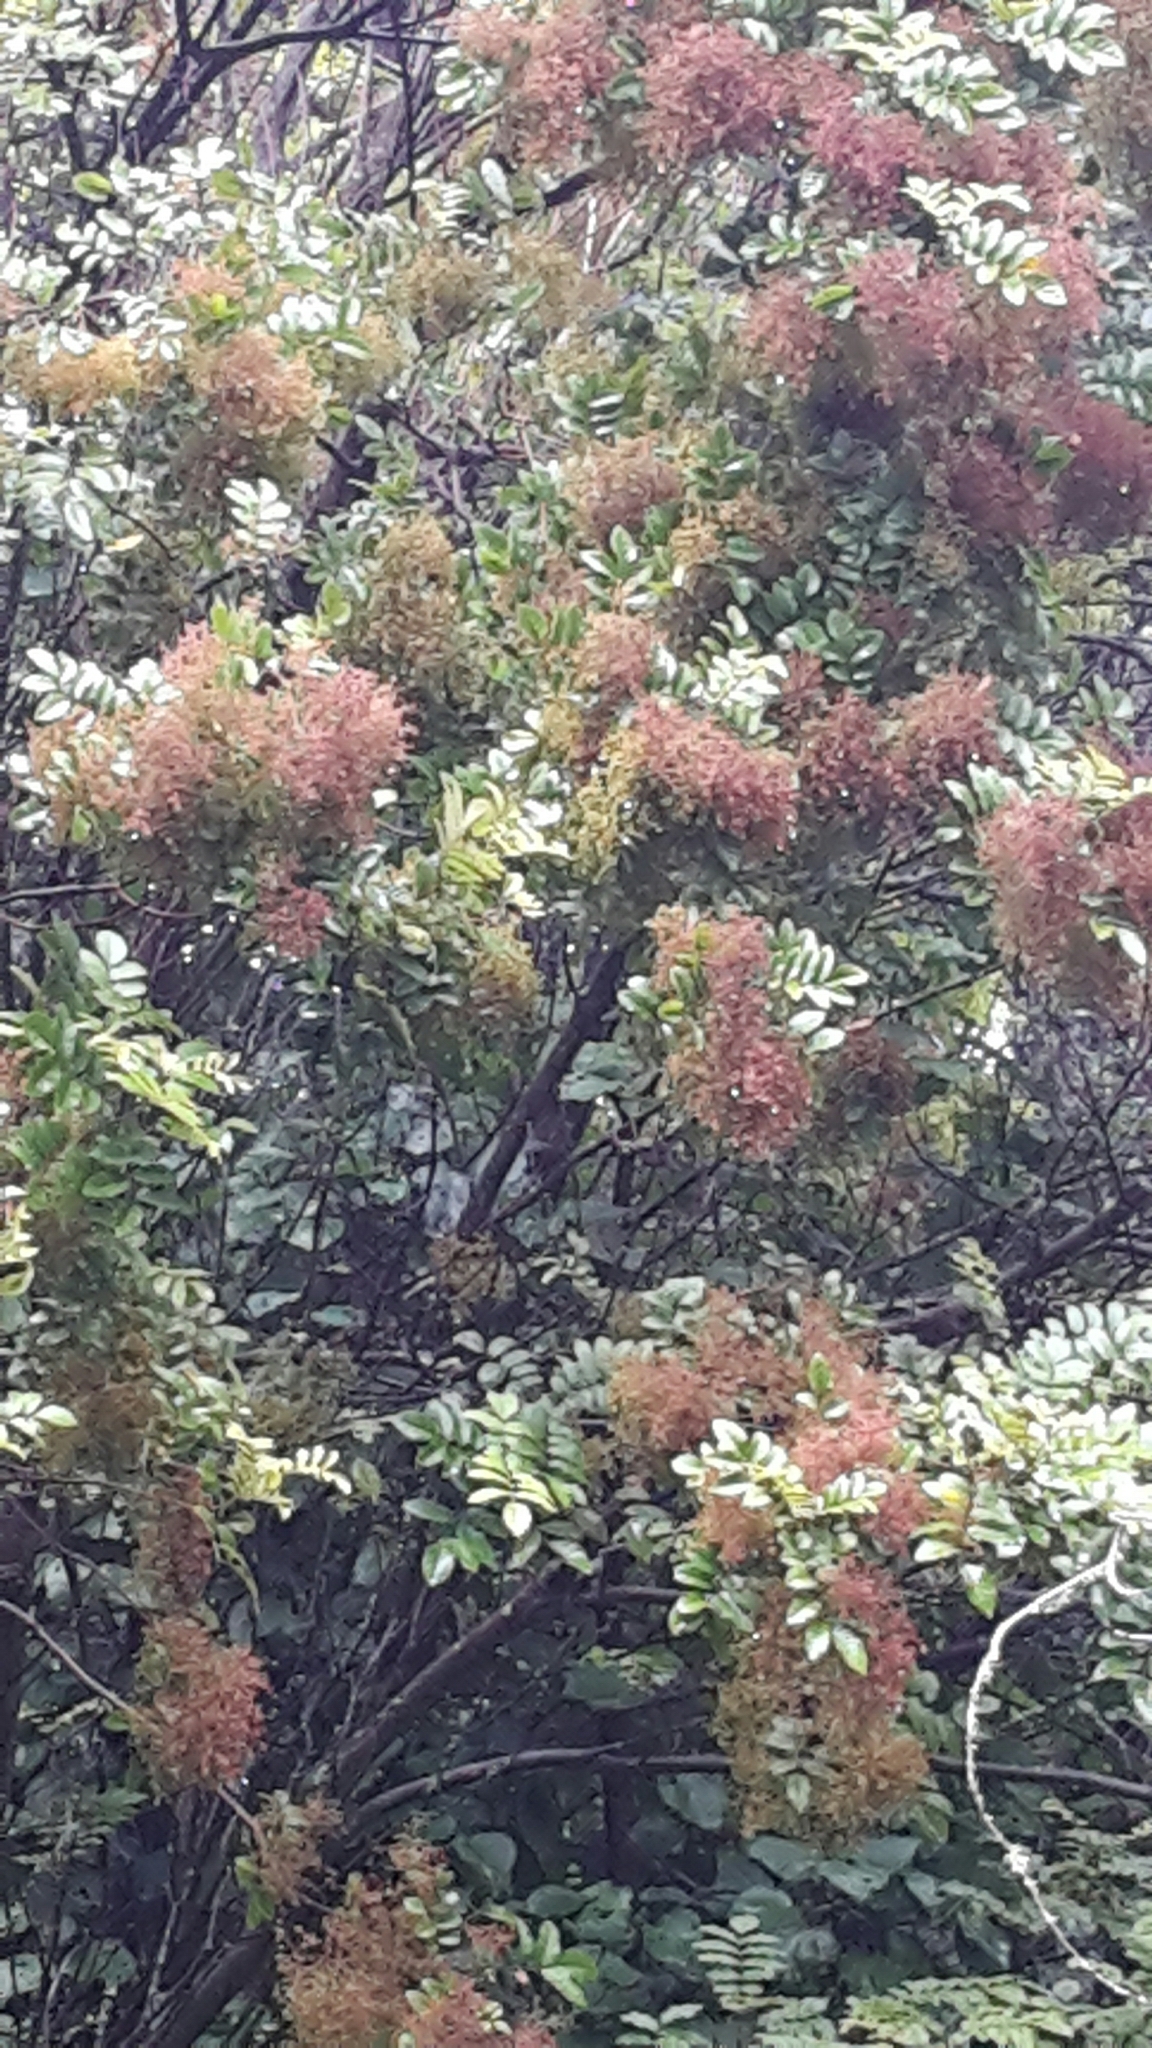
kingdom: Plantae
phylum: Tracheophyta
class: Magnoliopsida
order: Oxalidales
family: Cunoniaceae
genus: Ackama
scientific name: Ackama rosifolia
